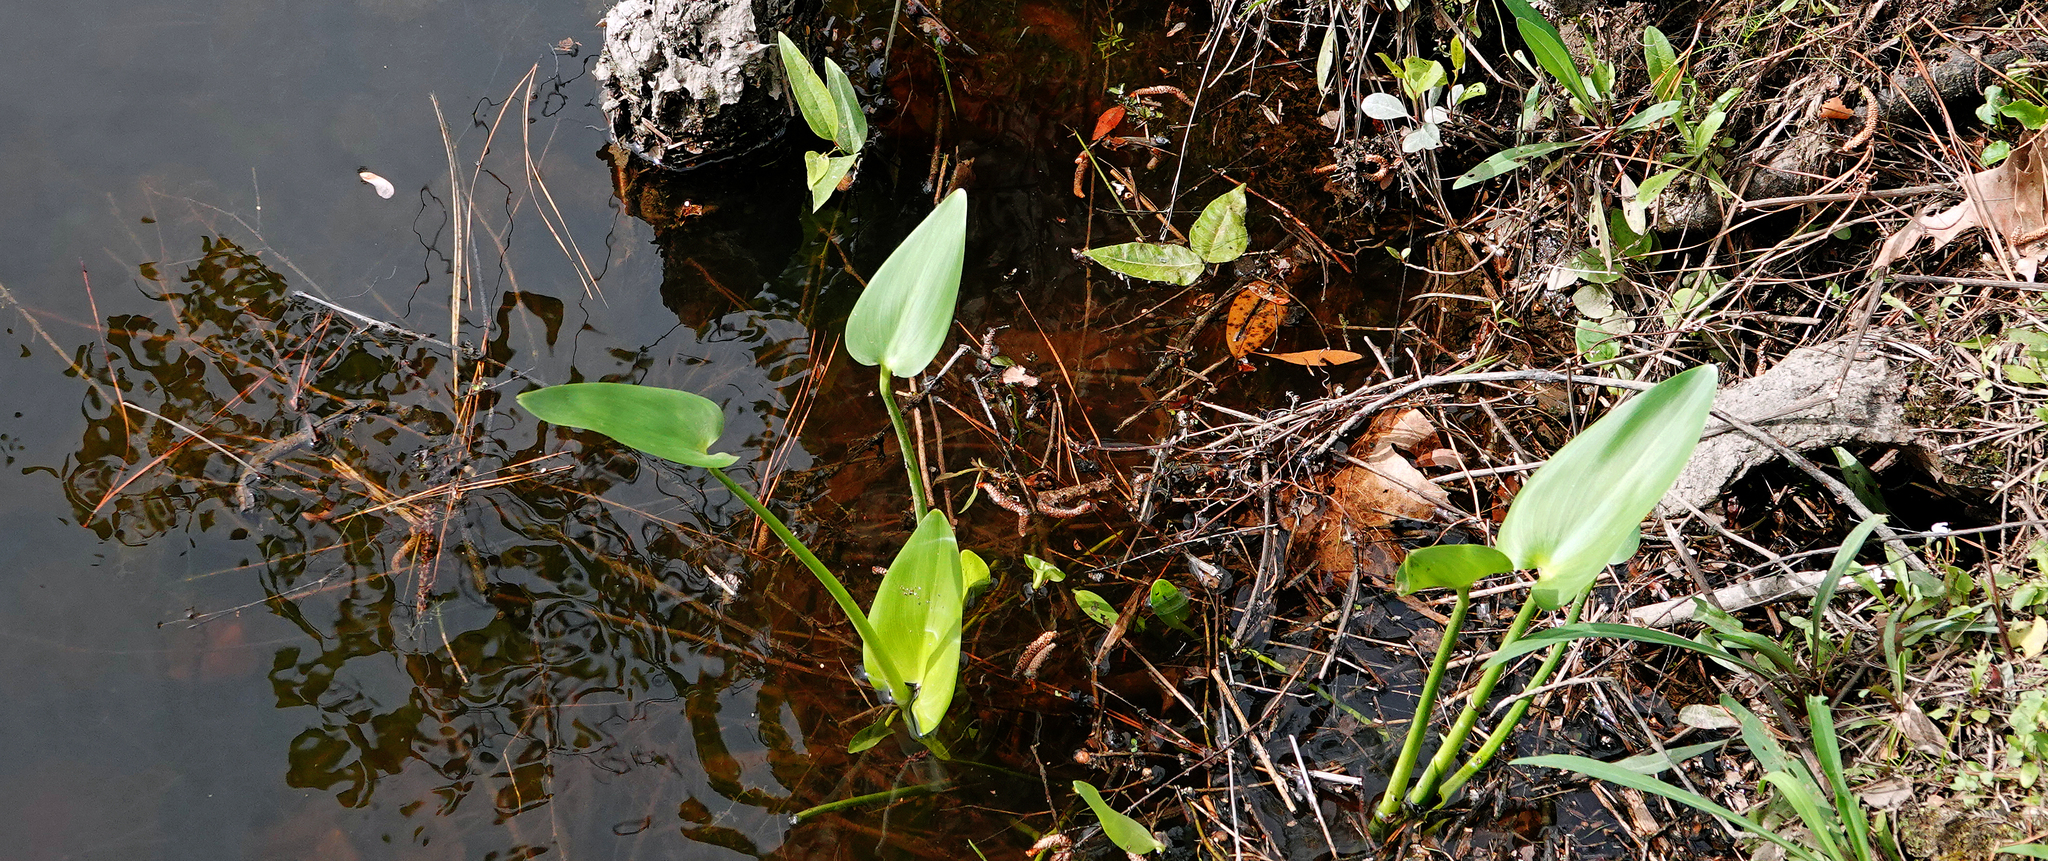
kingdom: Plantae
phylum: Tracheophyta
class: Liliopsida
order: Commelinales
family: Pontederiaceae
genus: Pontederia
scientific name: Pontederia cordata
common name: Pickerelweed
